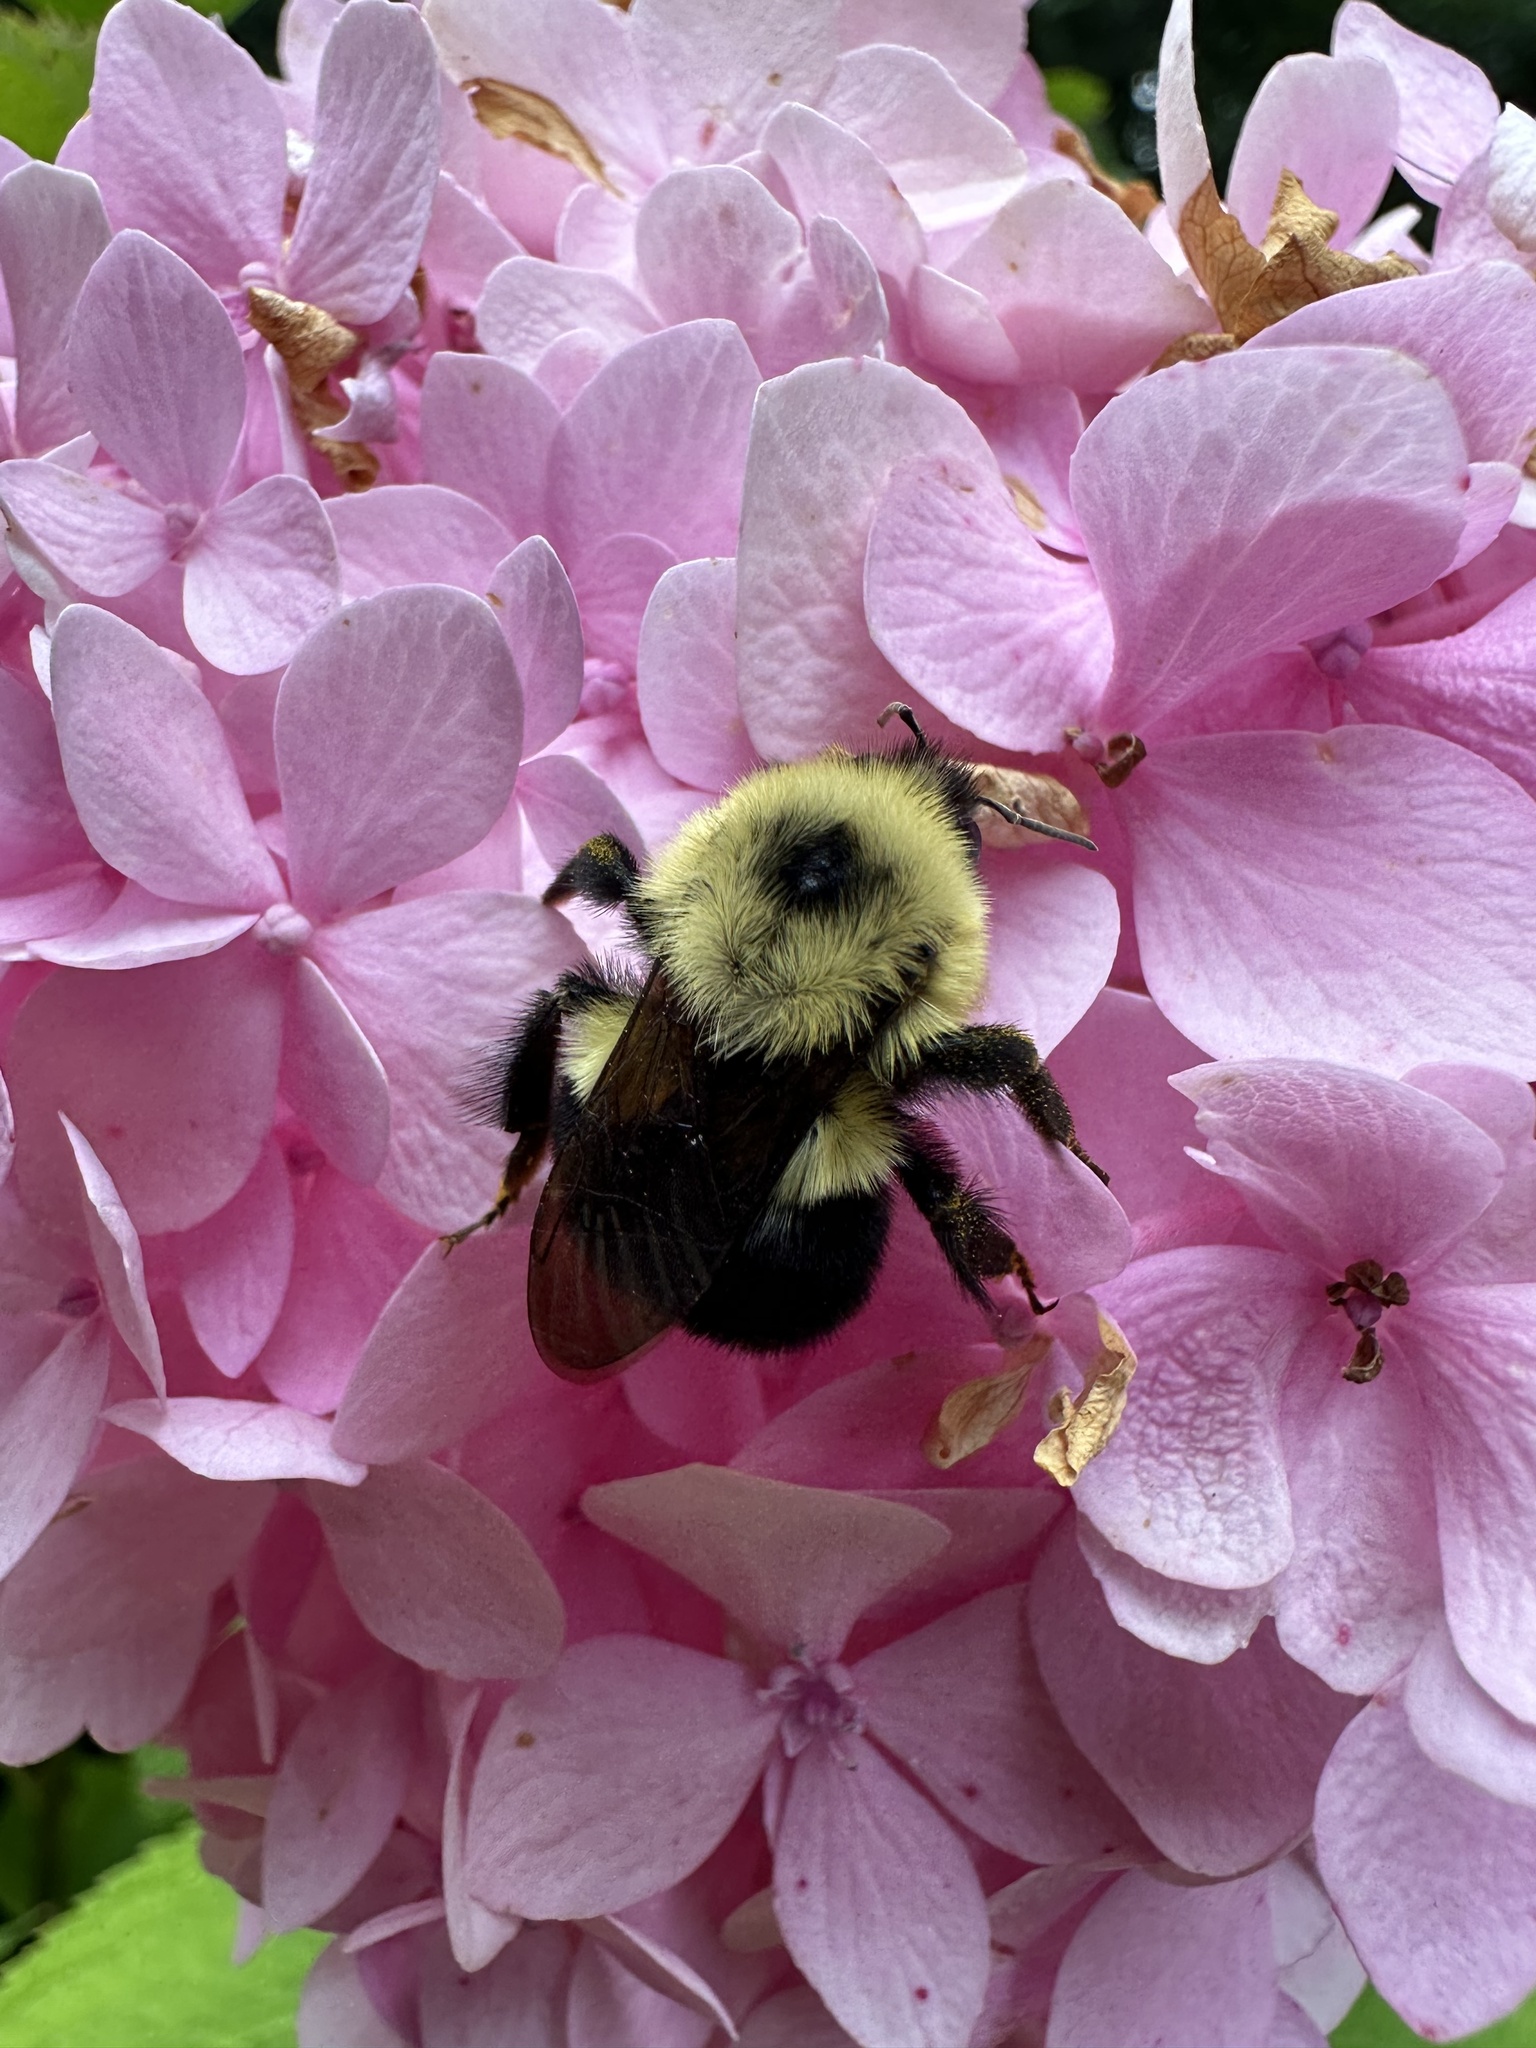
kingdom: Animalia
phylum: Arthropoda
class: Insecta
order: Hymenoptera
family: Apidae
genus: Bombus
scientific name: Bombus bimaculatus
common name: Two-spotted bumble bee
